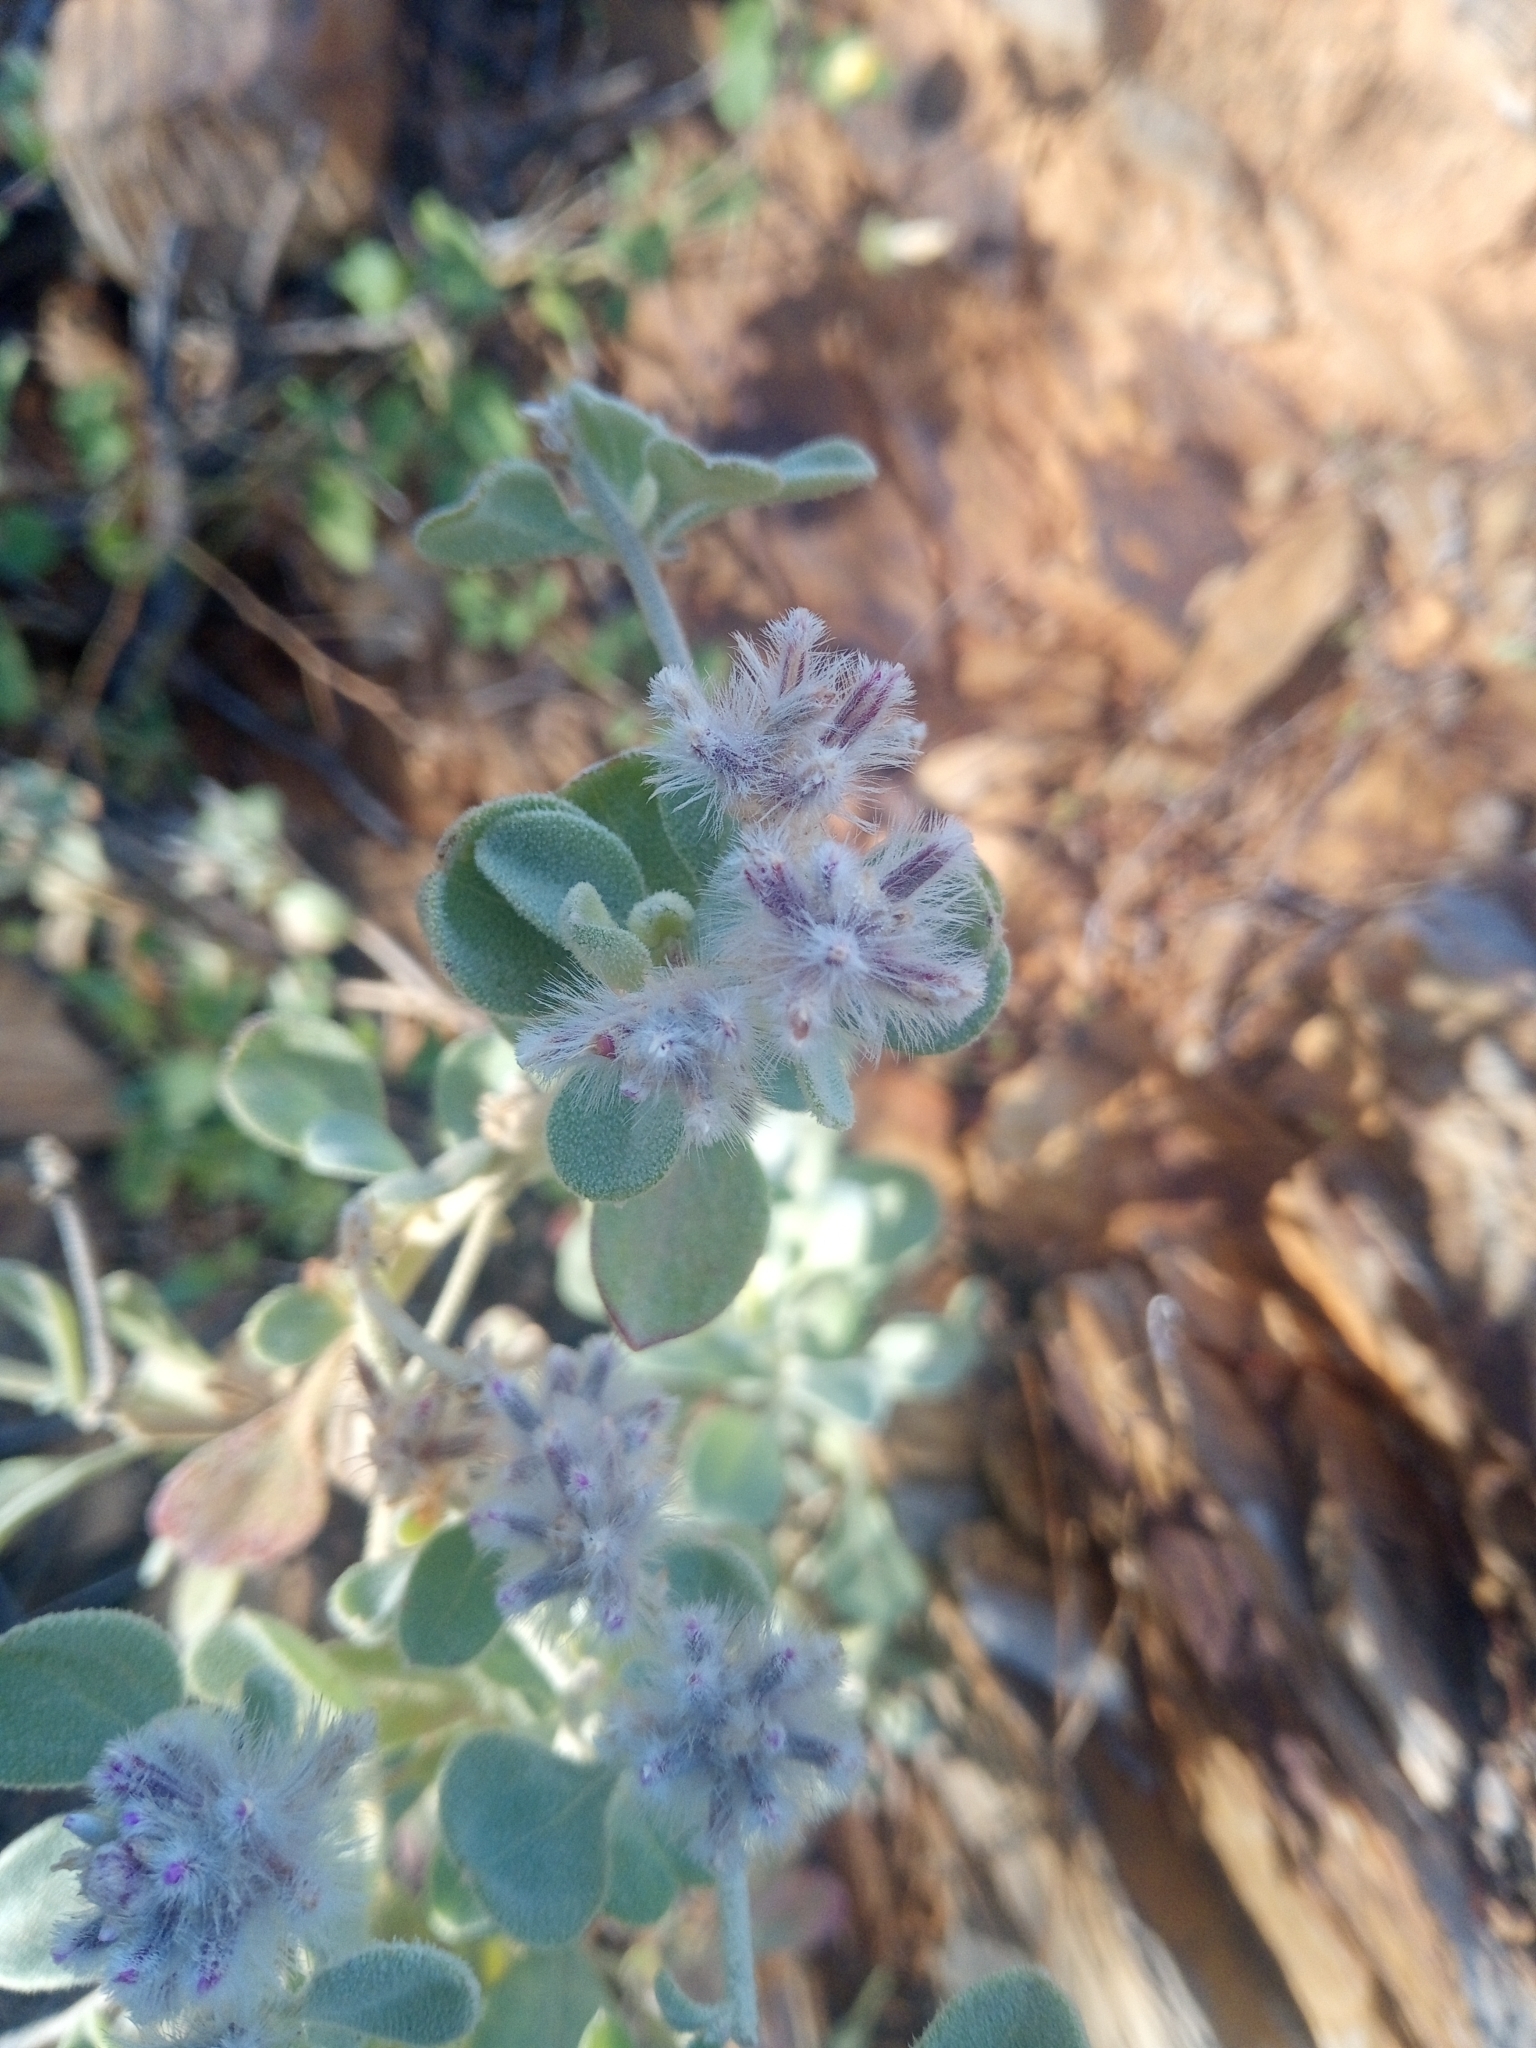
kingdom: Plantae
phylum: Tracheophyta
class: Magnoliopsida
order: Caryophyllales
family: Amaranthaceae
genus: Ptilotus
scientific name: Ptilotus obovatus
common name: Cottonbush
